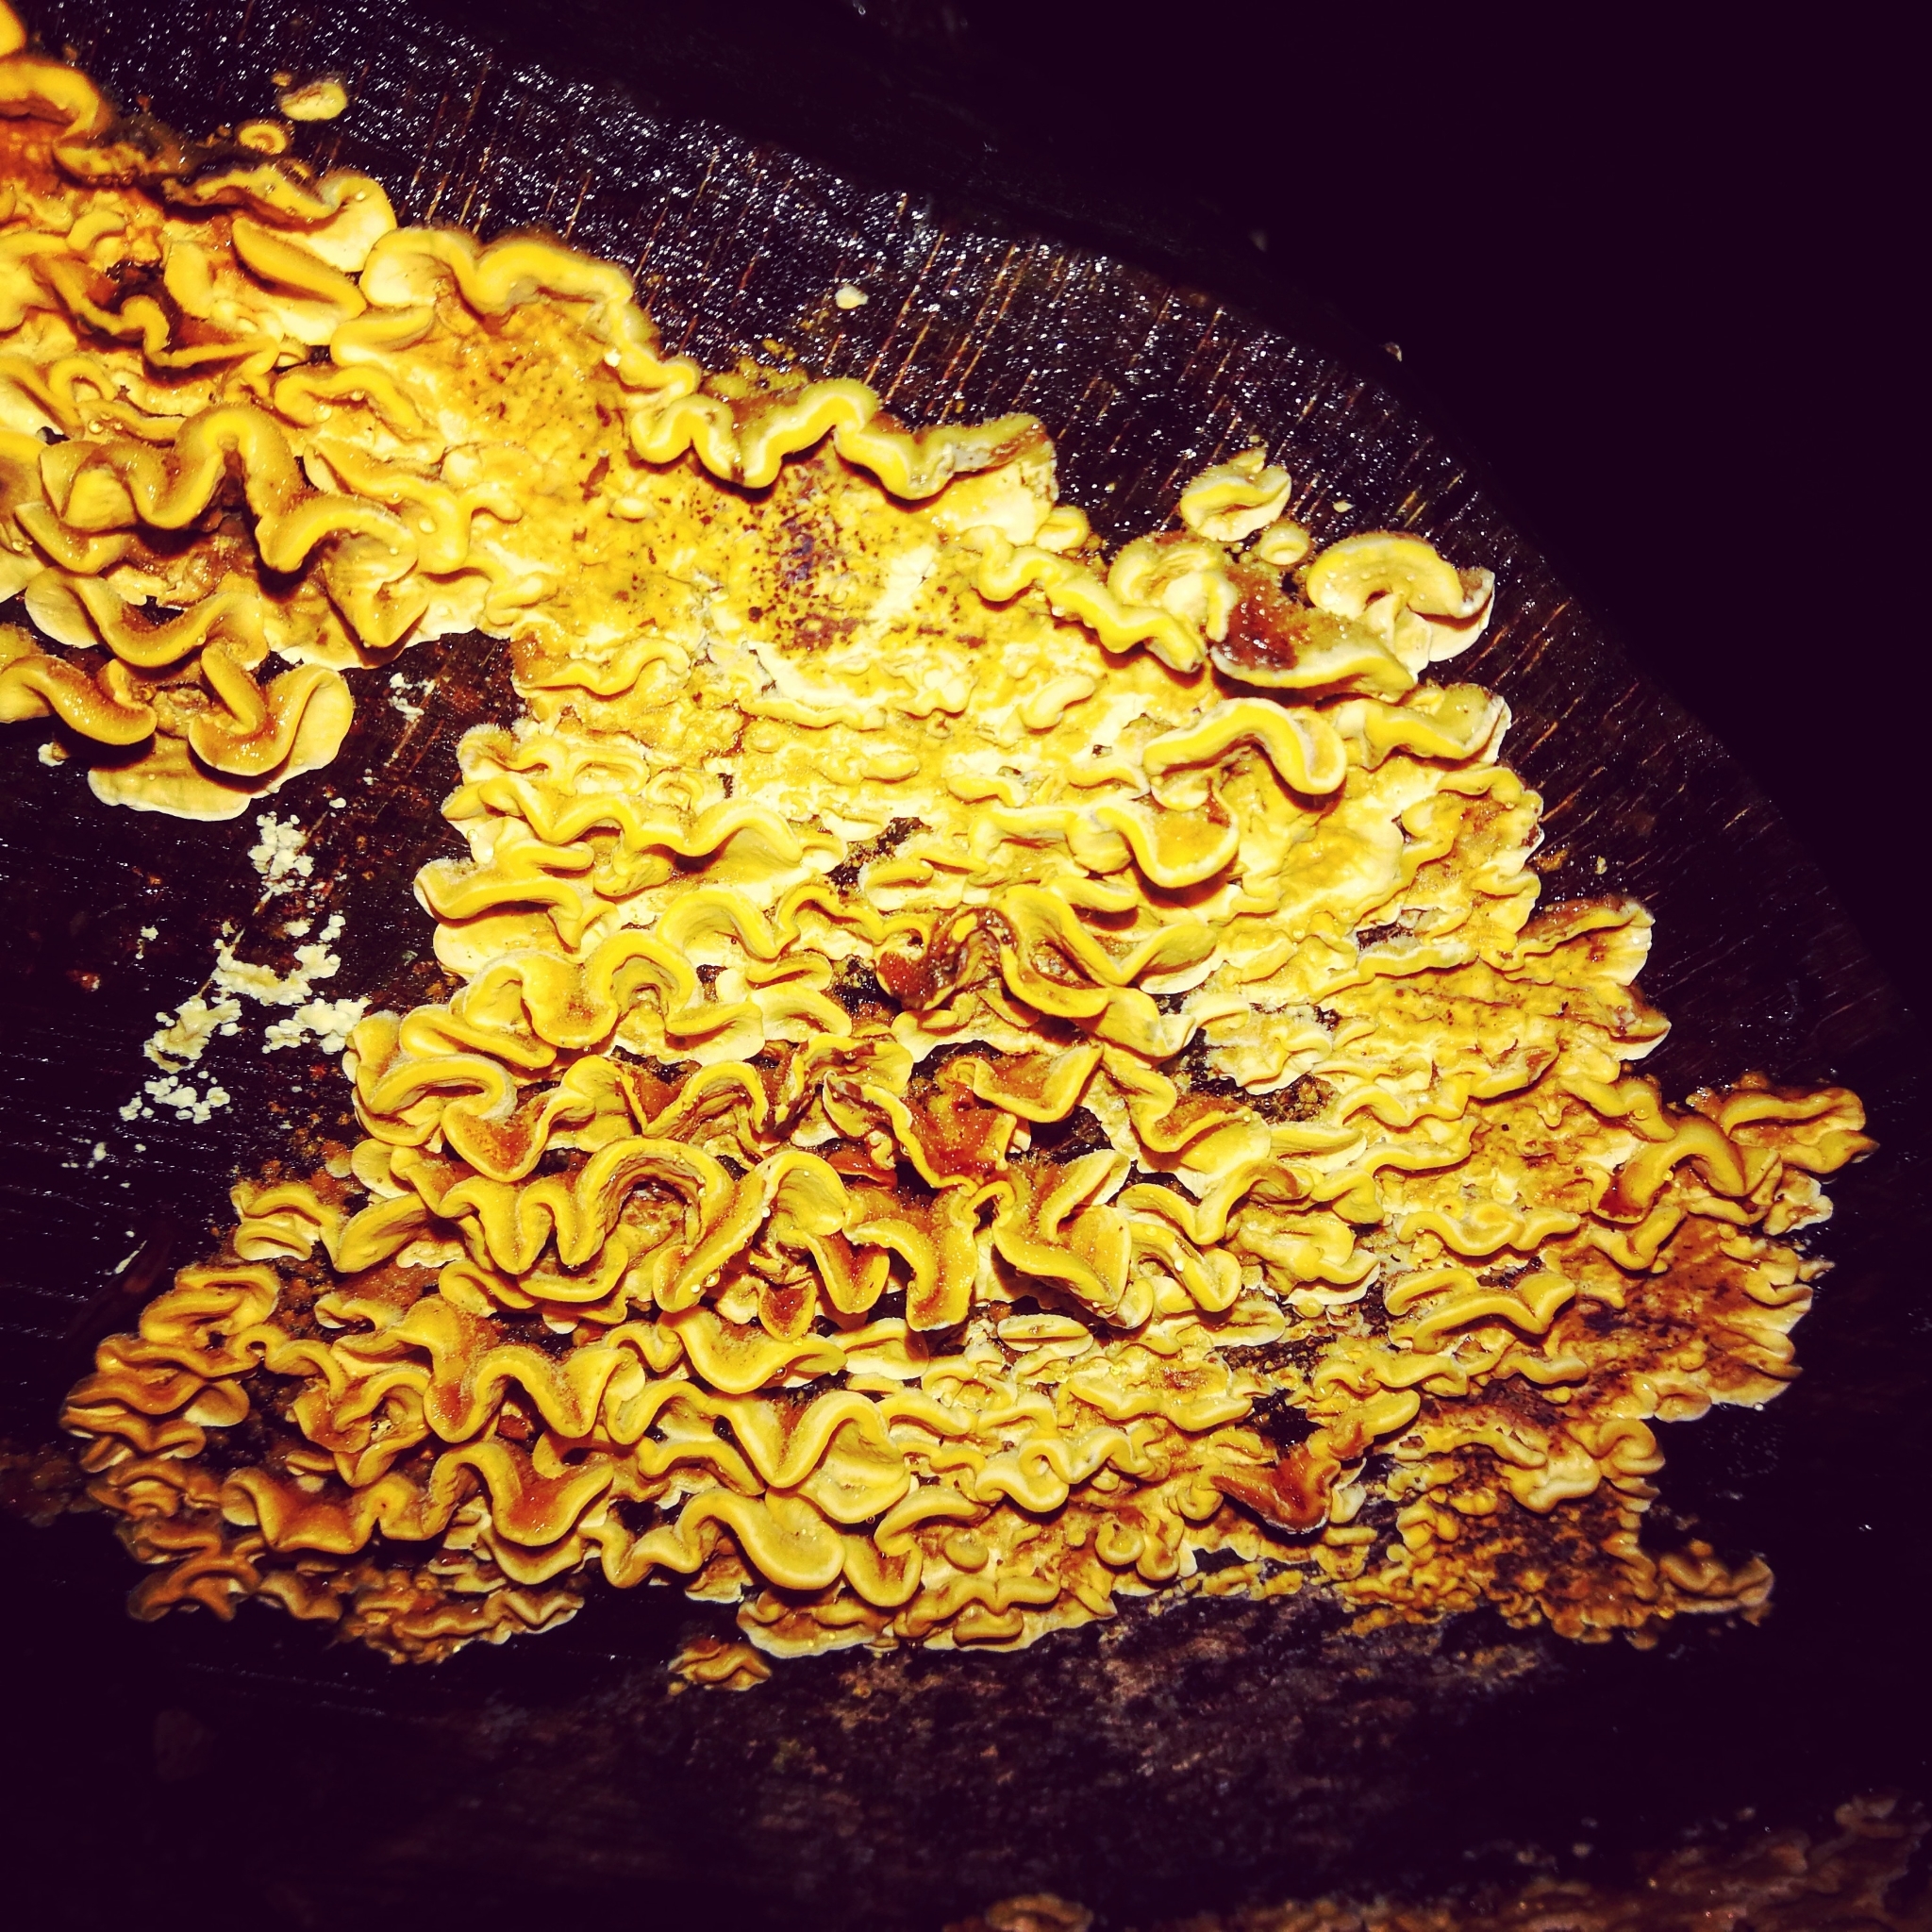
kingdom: Fungi
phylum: Basidiomycota
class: Agaricomycetes
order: Russulales
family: Stereaceae
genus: Stereum
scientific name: Stereum hirsutum
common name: Hairy curtain crust
